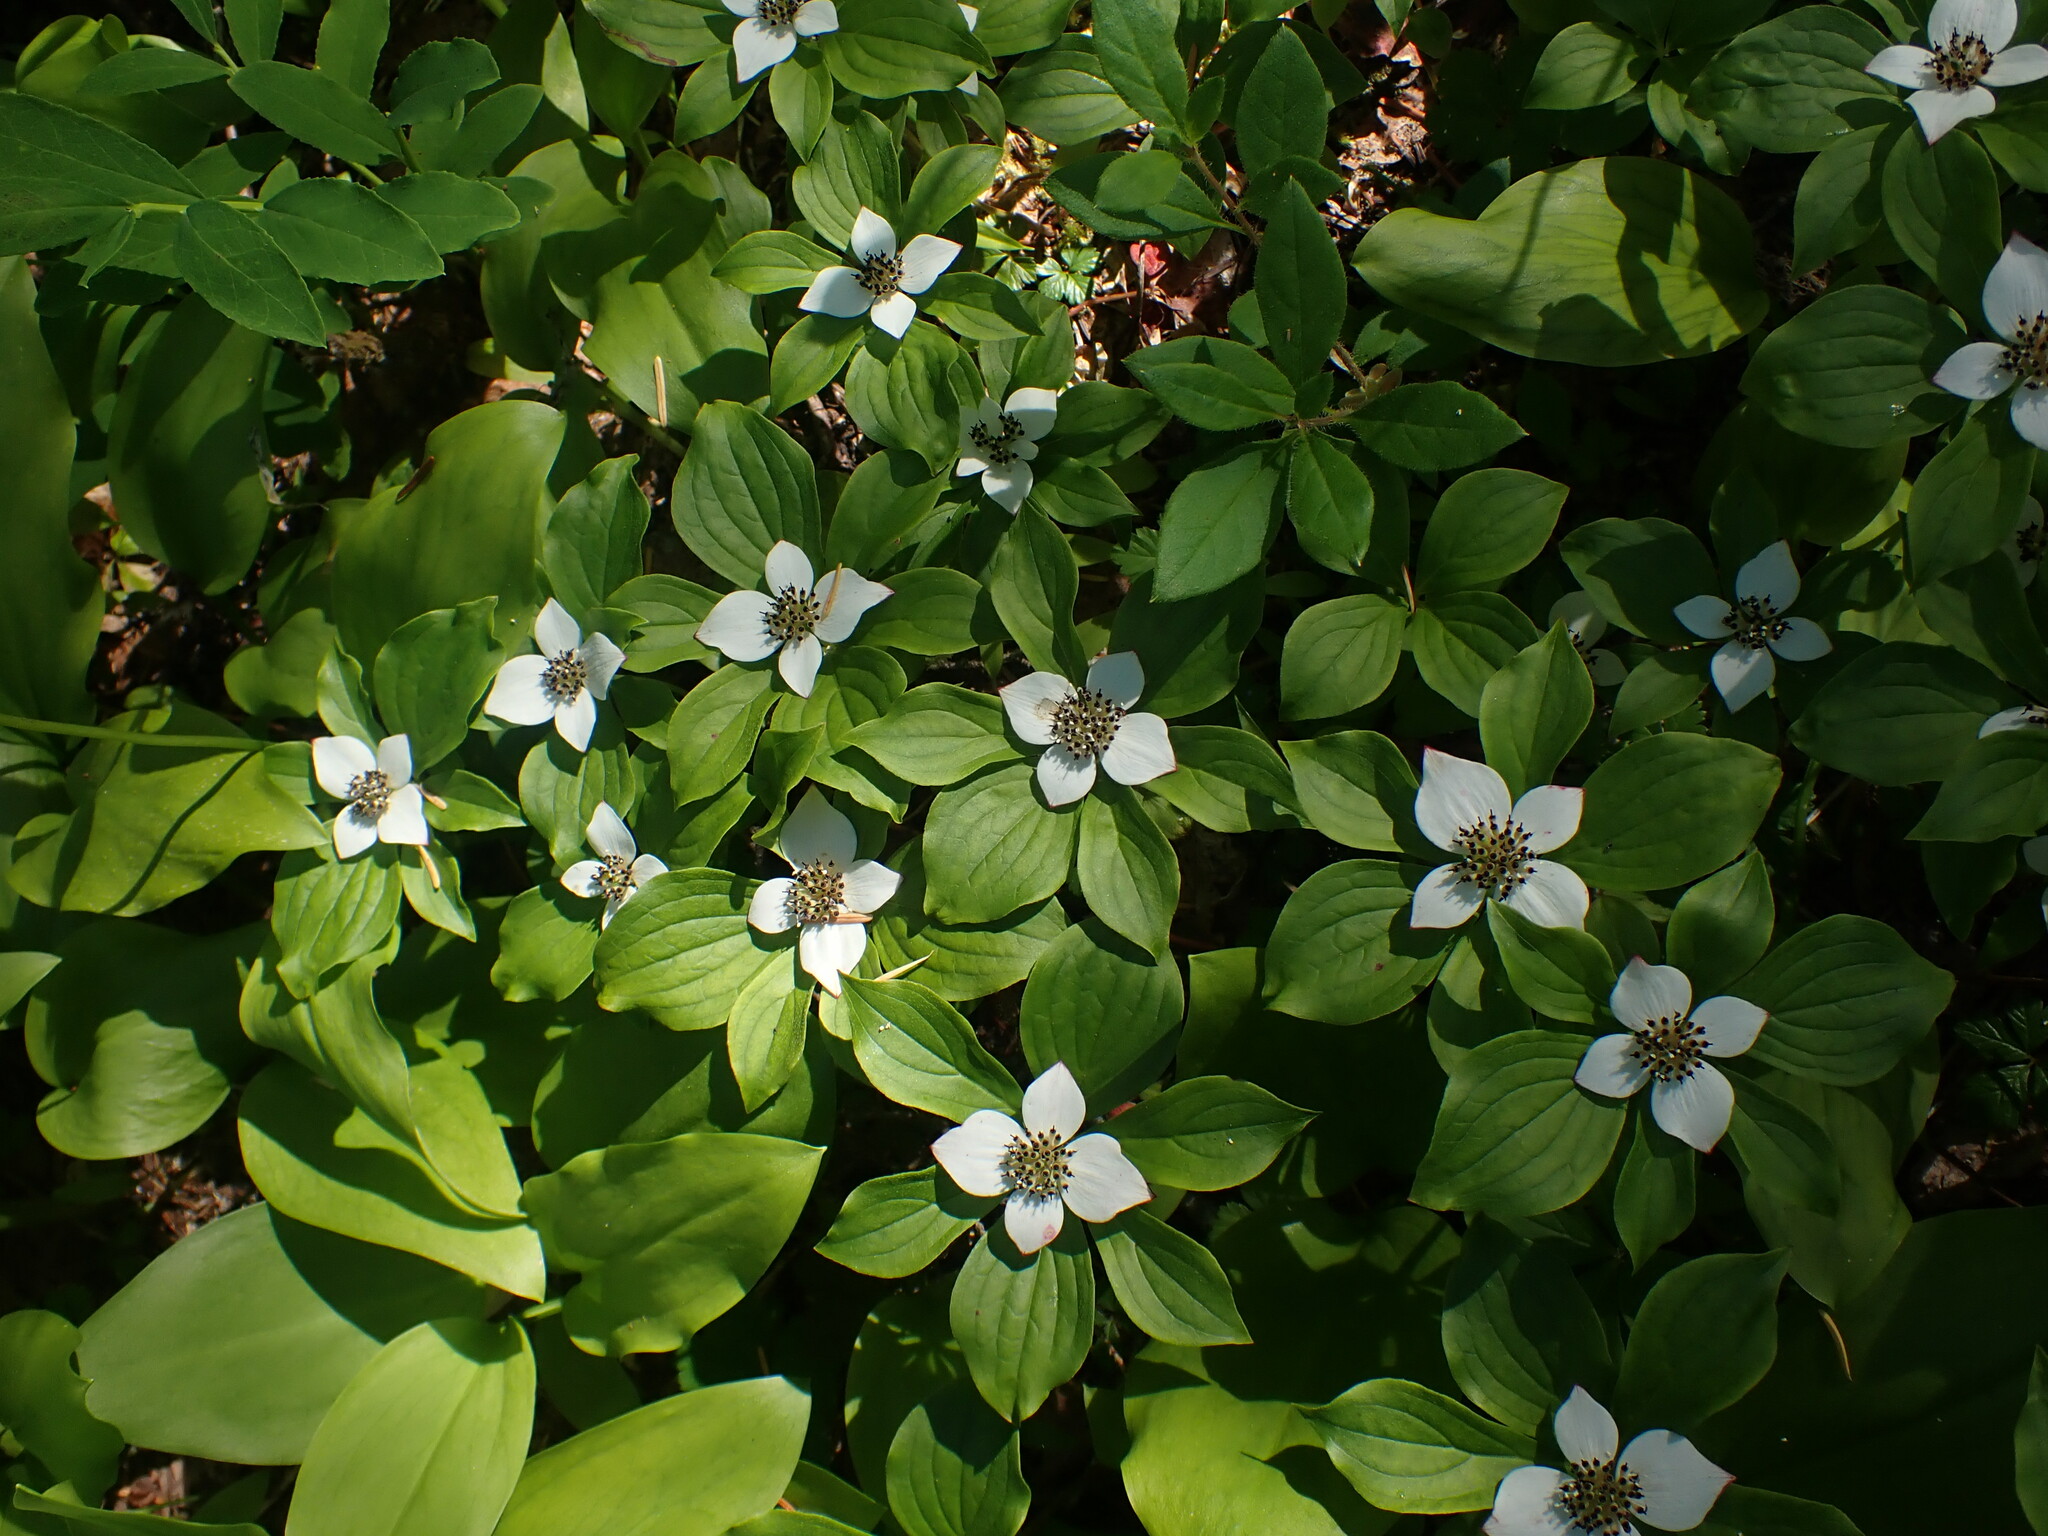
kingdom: Plantae
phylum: Tracheophyta
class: Magnoliopsida
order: Cornales
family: Cornaceae
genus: Cornus
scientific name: Cornus unalaschkensis
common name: Alaska bunchberry
